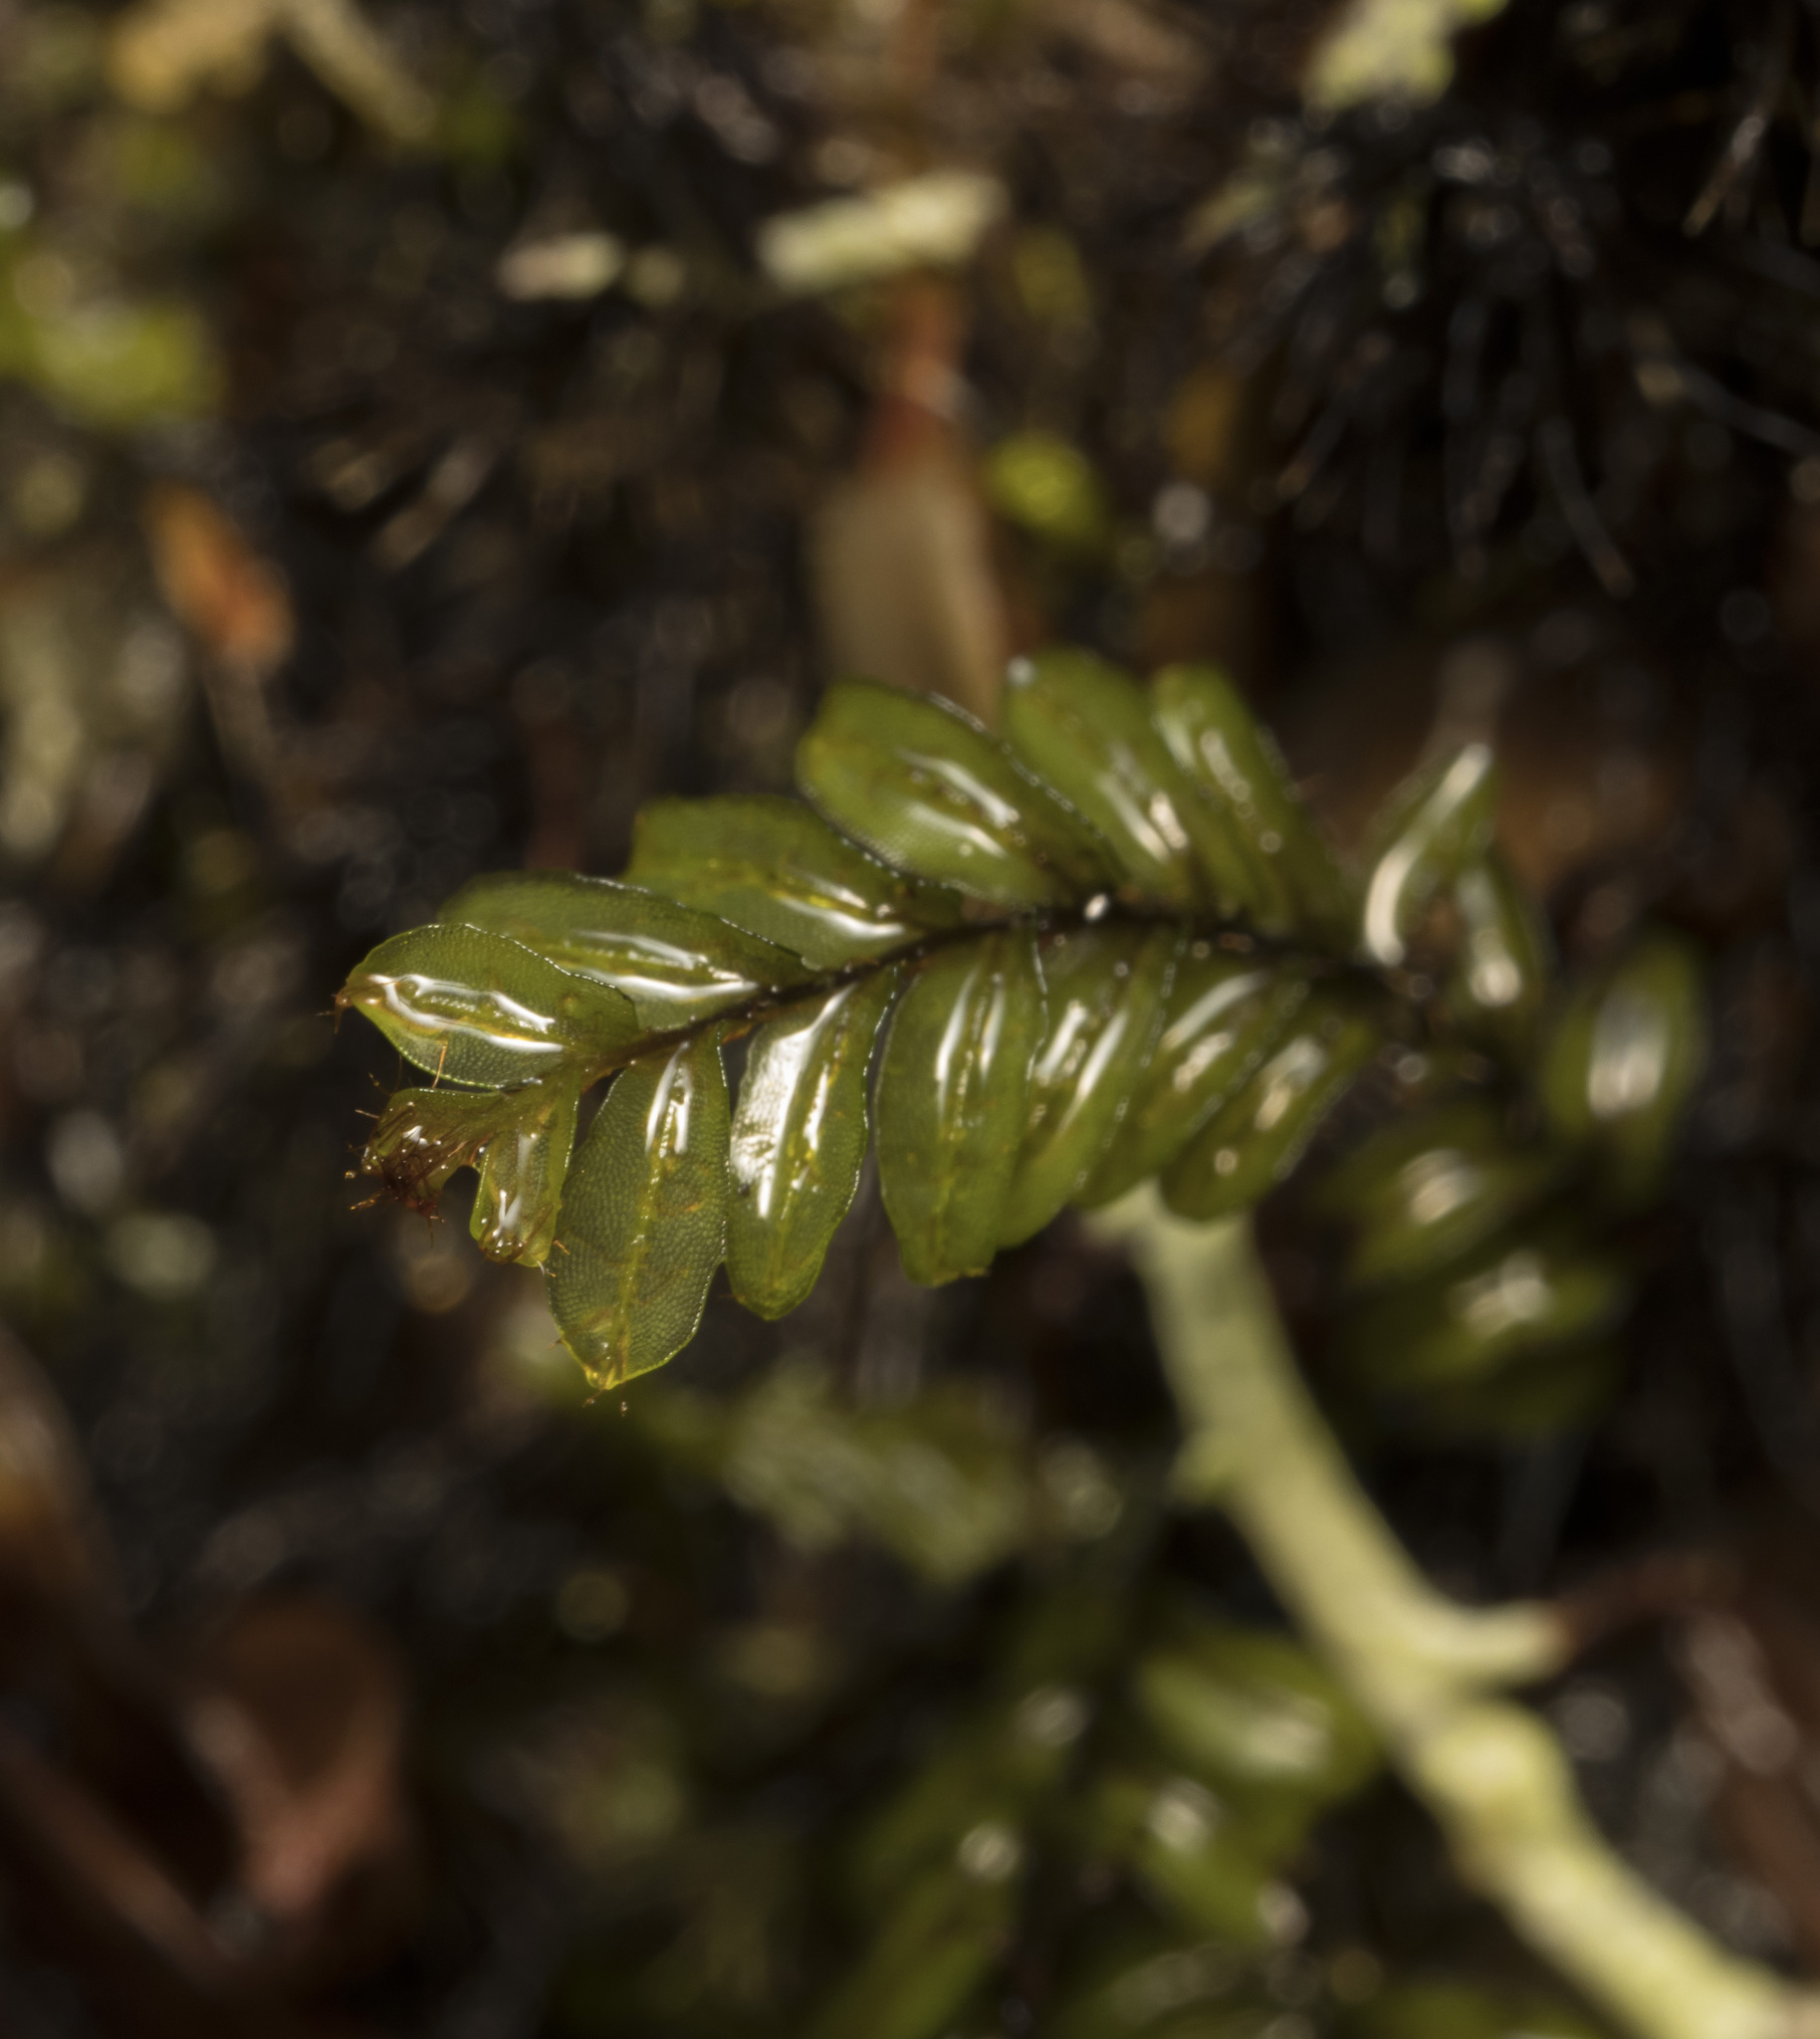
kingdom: Plantae
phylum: Tracheophyta
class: Polypodiopsida
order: Hymenophyllales
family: Hymenophyllaceae
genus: Hymenophyllum
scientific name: Hymenophyllum caespitosum
